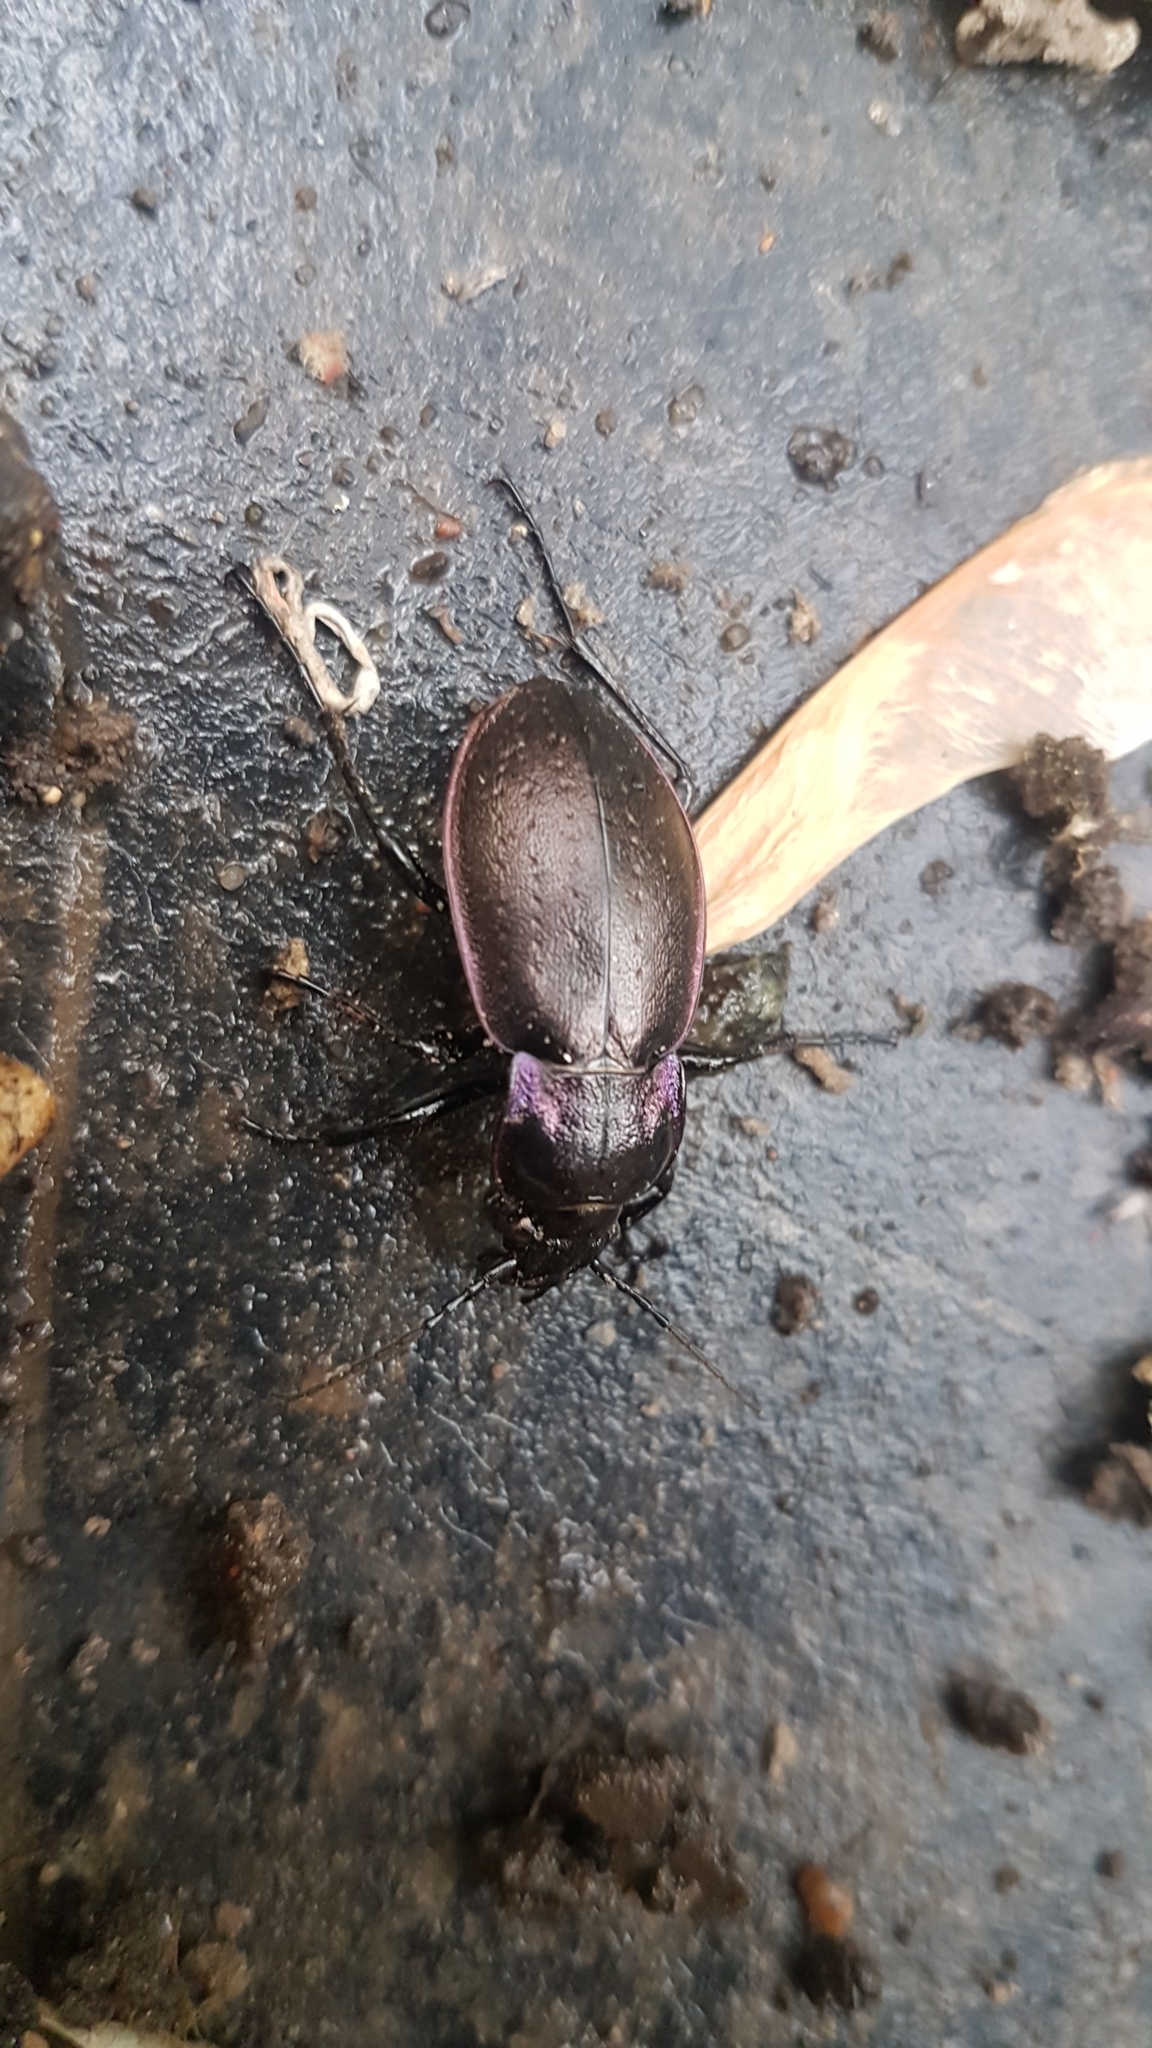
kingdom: Animalia
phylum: Arthropoda
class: Insecta
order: Coleoptera
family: Carabidae
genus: Carabus
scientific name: Carabus nemoralis
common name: European ground beetle
